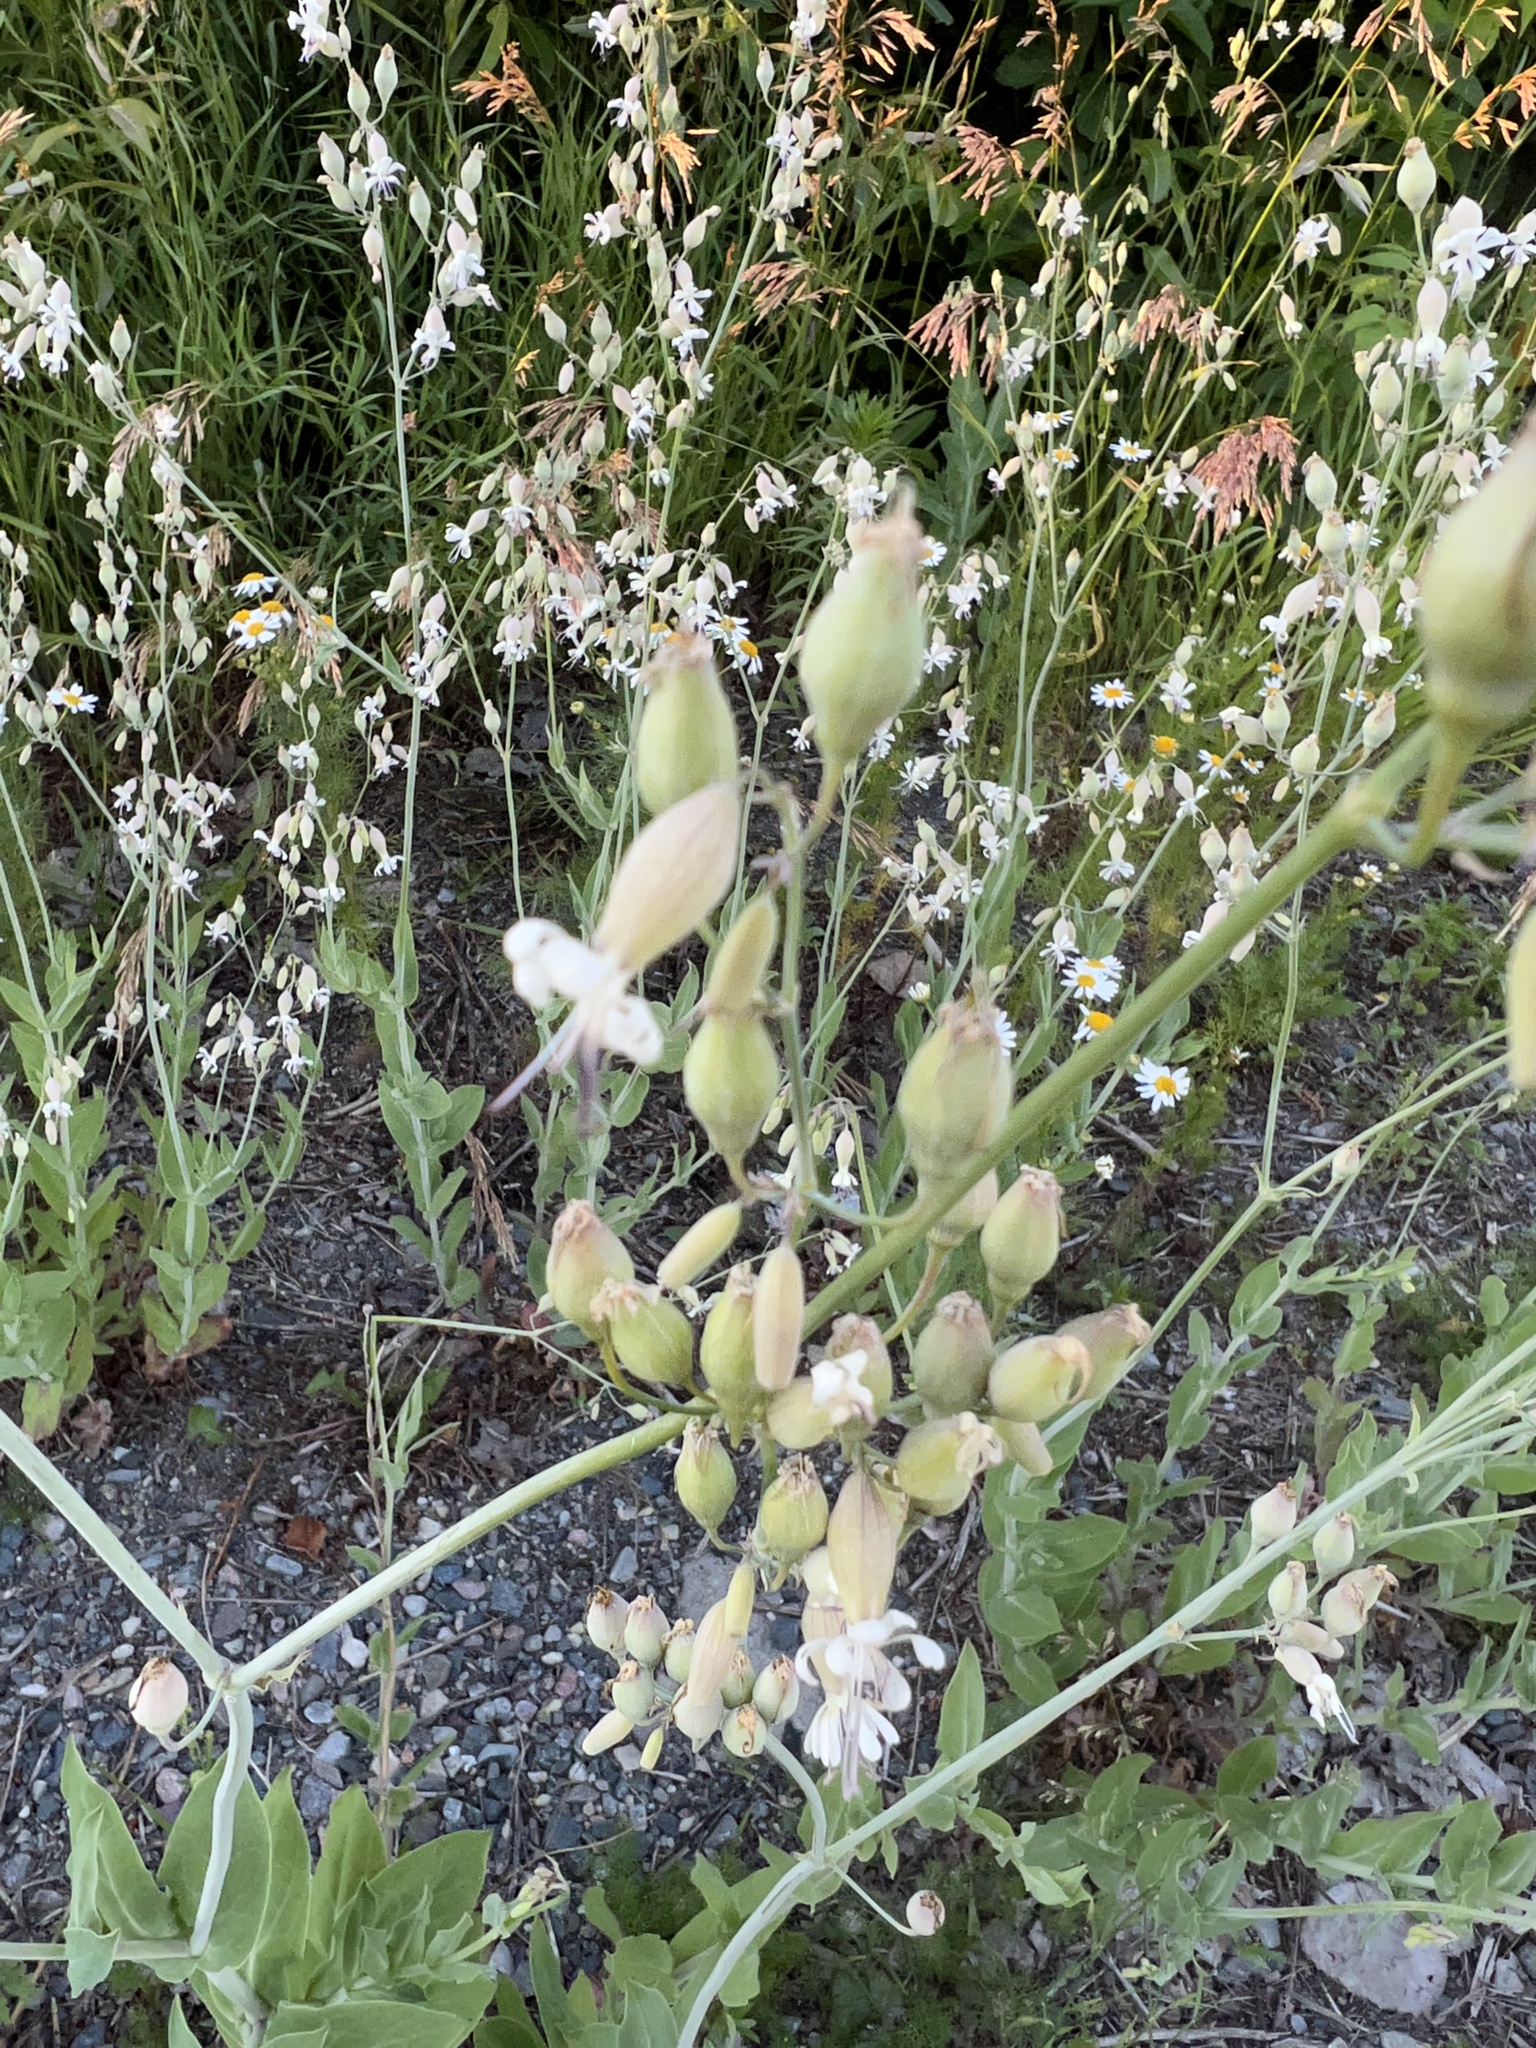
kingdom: Plantae
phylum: Tracheophyta
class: Magnoliopsida
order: Caryophyllales
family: Caryophyllaceae
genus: Silene
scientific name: Silene vulgaris
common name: Bladder campion
